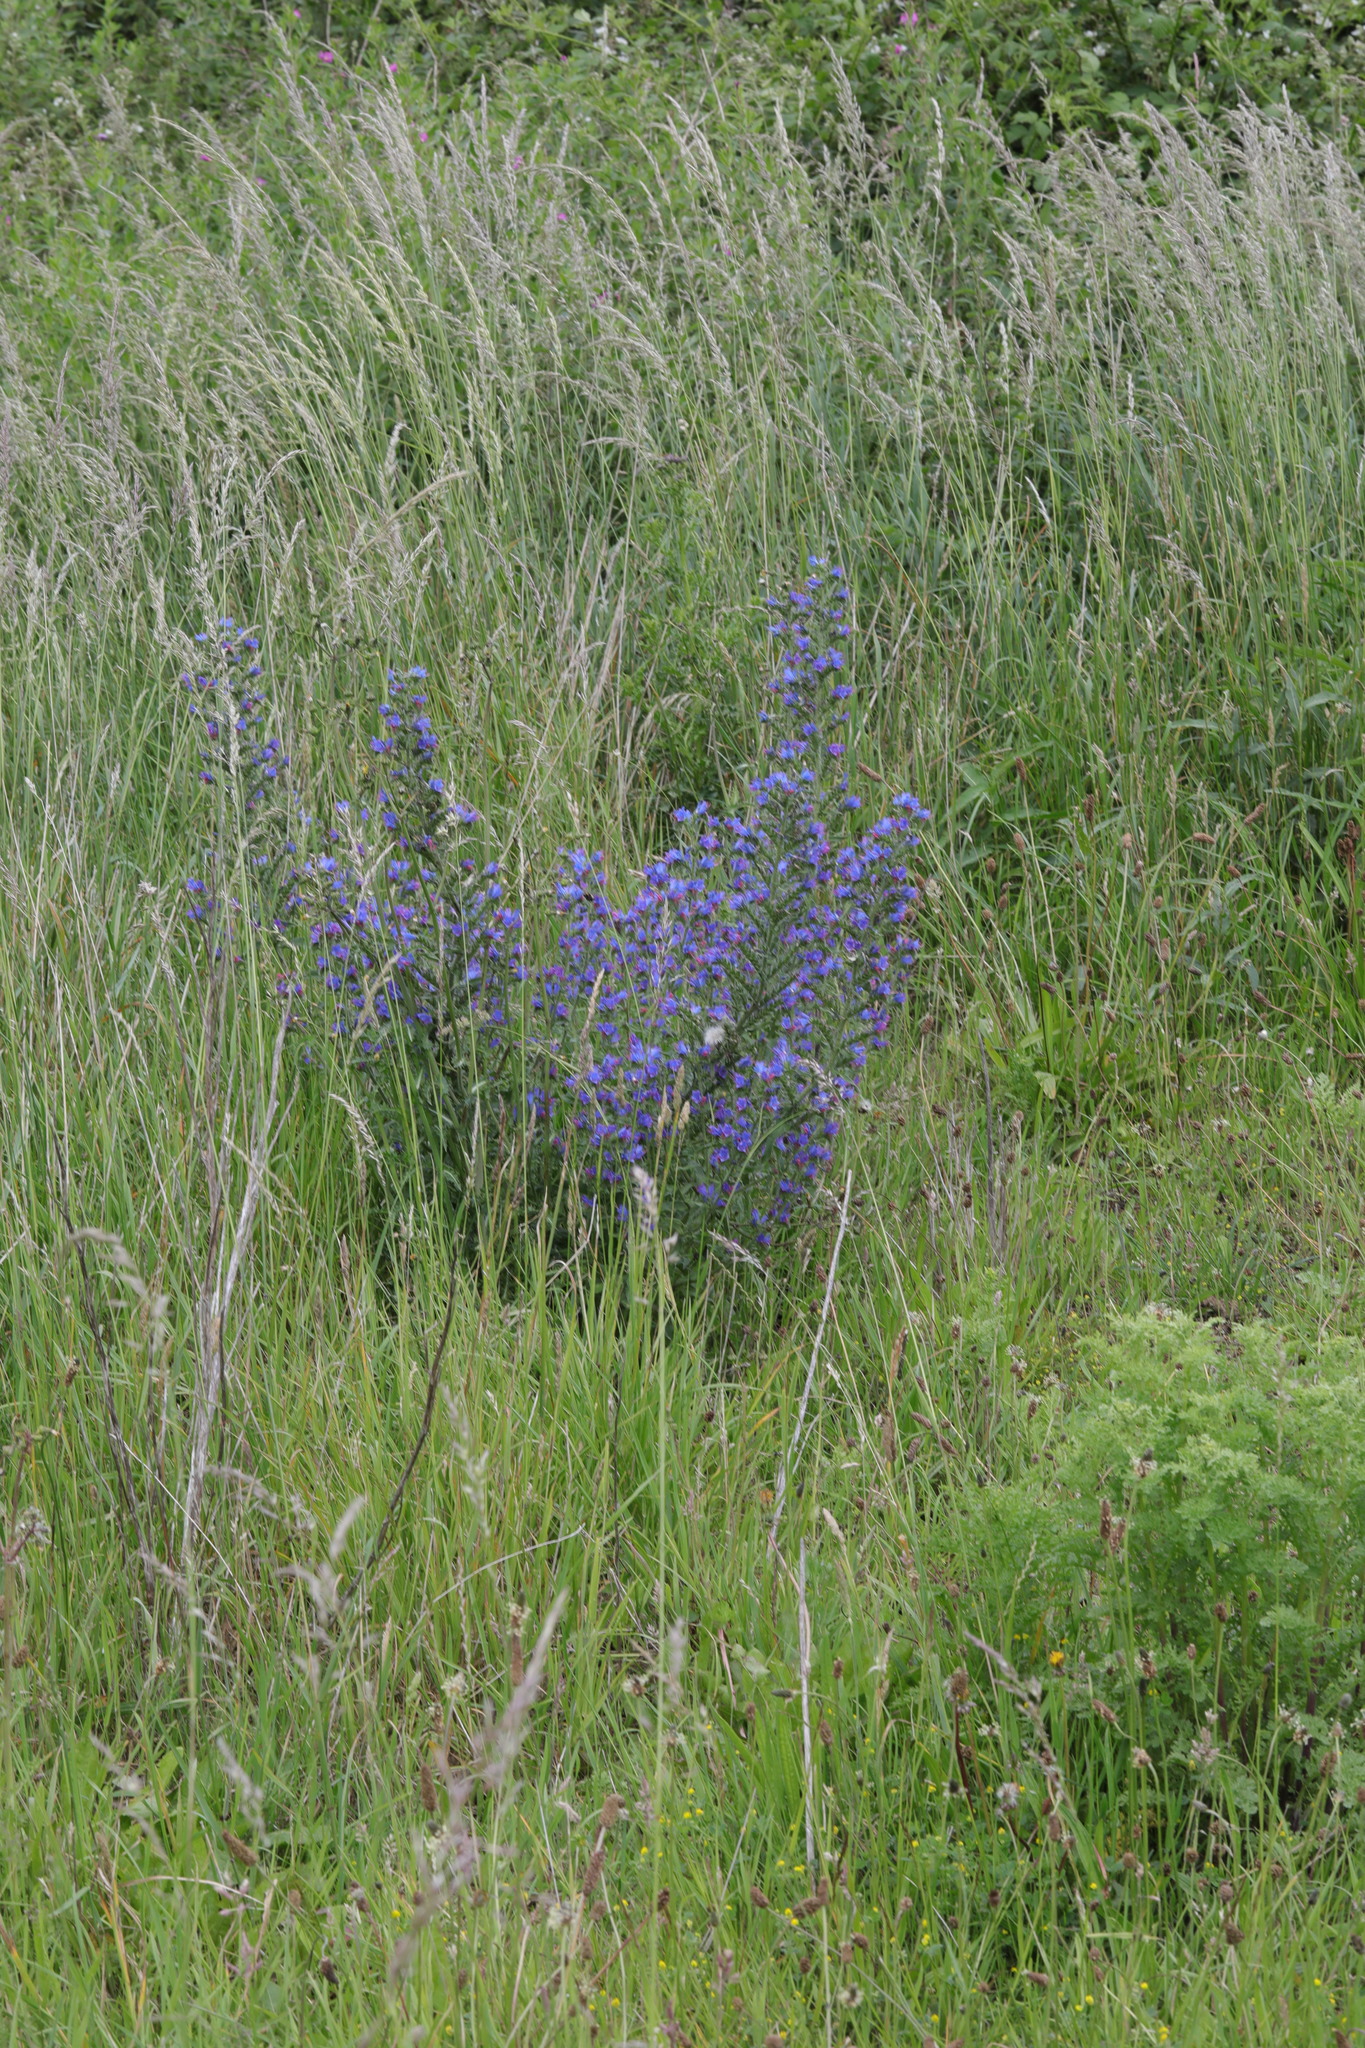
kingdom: Plantae
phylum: Tracheophyta
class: Magnoliopsida
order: Boraginales
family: Boraginaceae
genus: Echium
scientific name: Echium vulgare
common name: Common viper's bugloss
